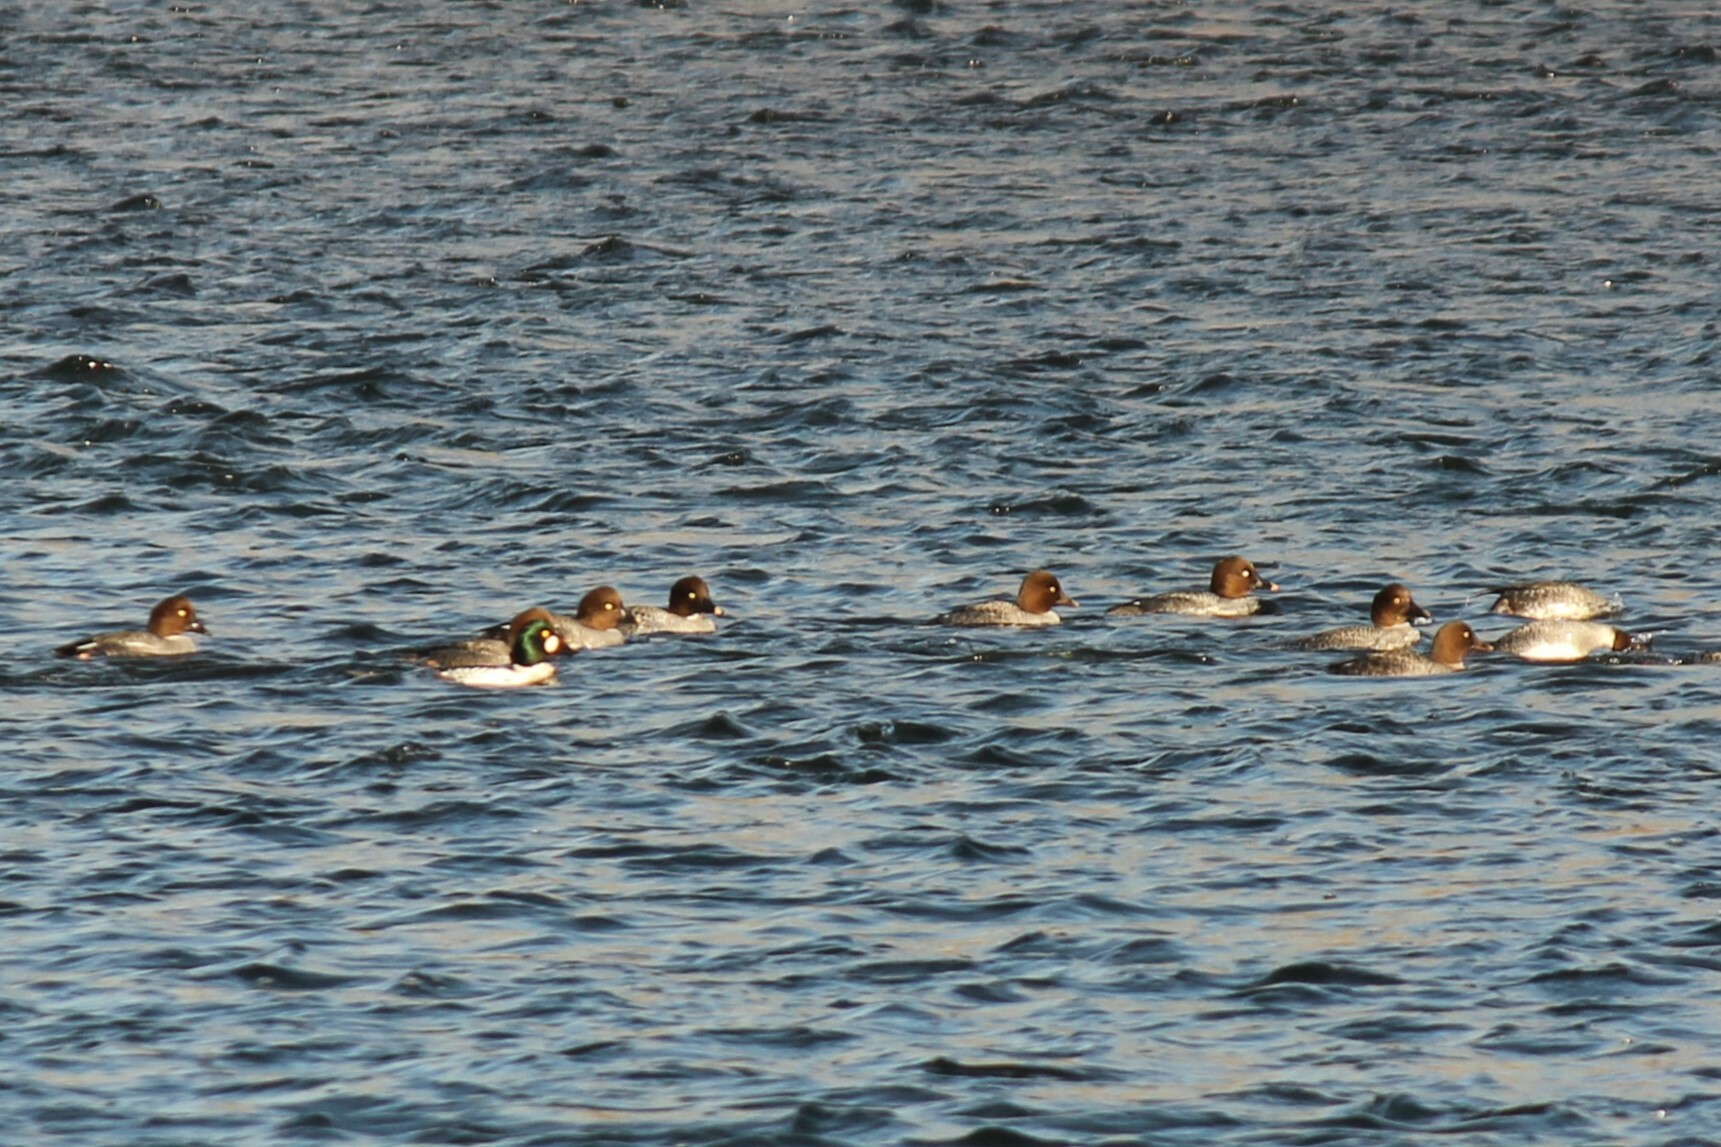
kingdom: Animalia
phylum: Chordata
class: Aves
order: Anseriformes
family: Anatidae
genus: Bucephala
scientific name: Bucephala clangula
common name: Common goldeneye
